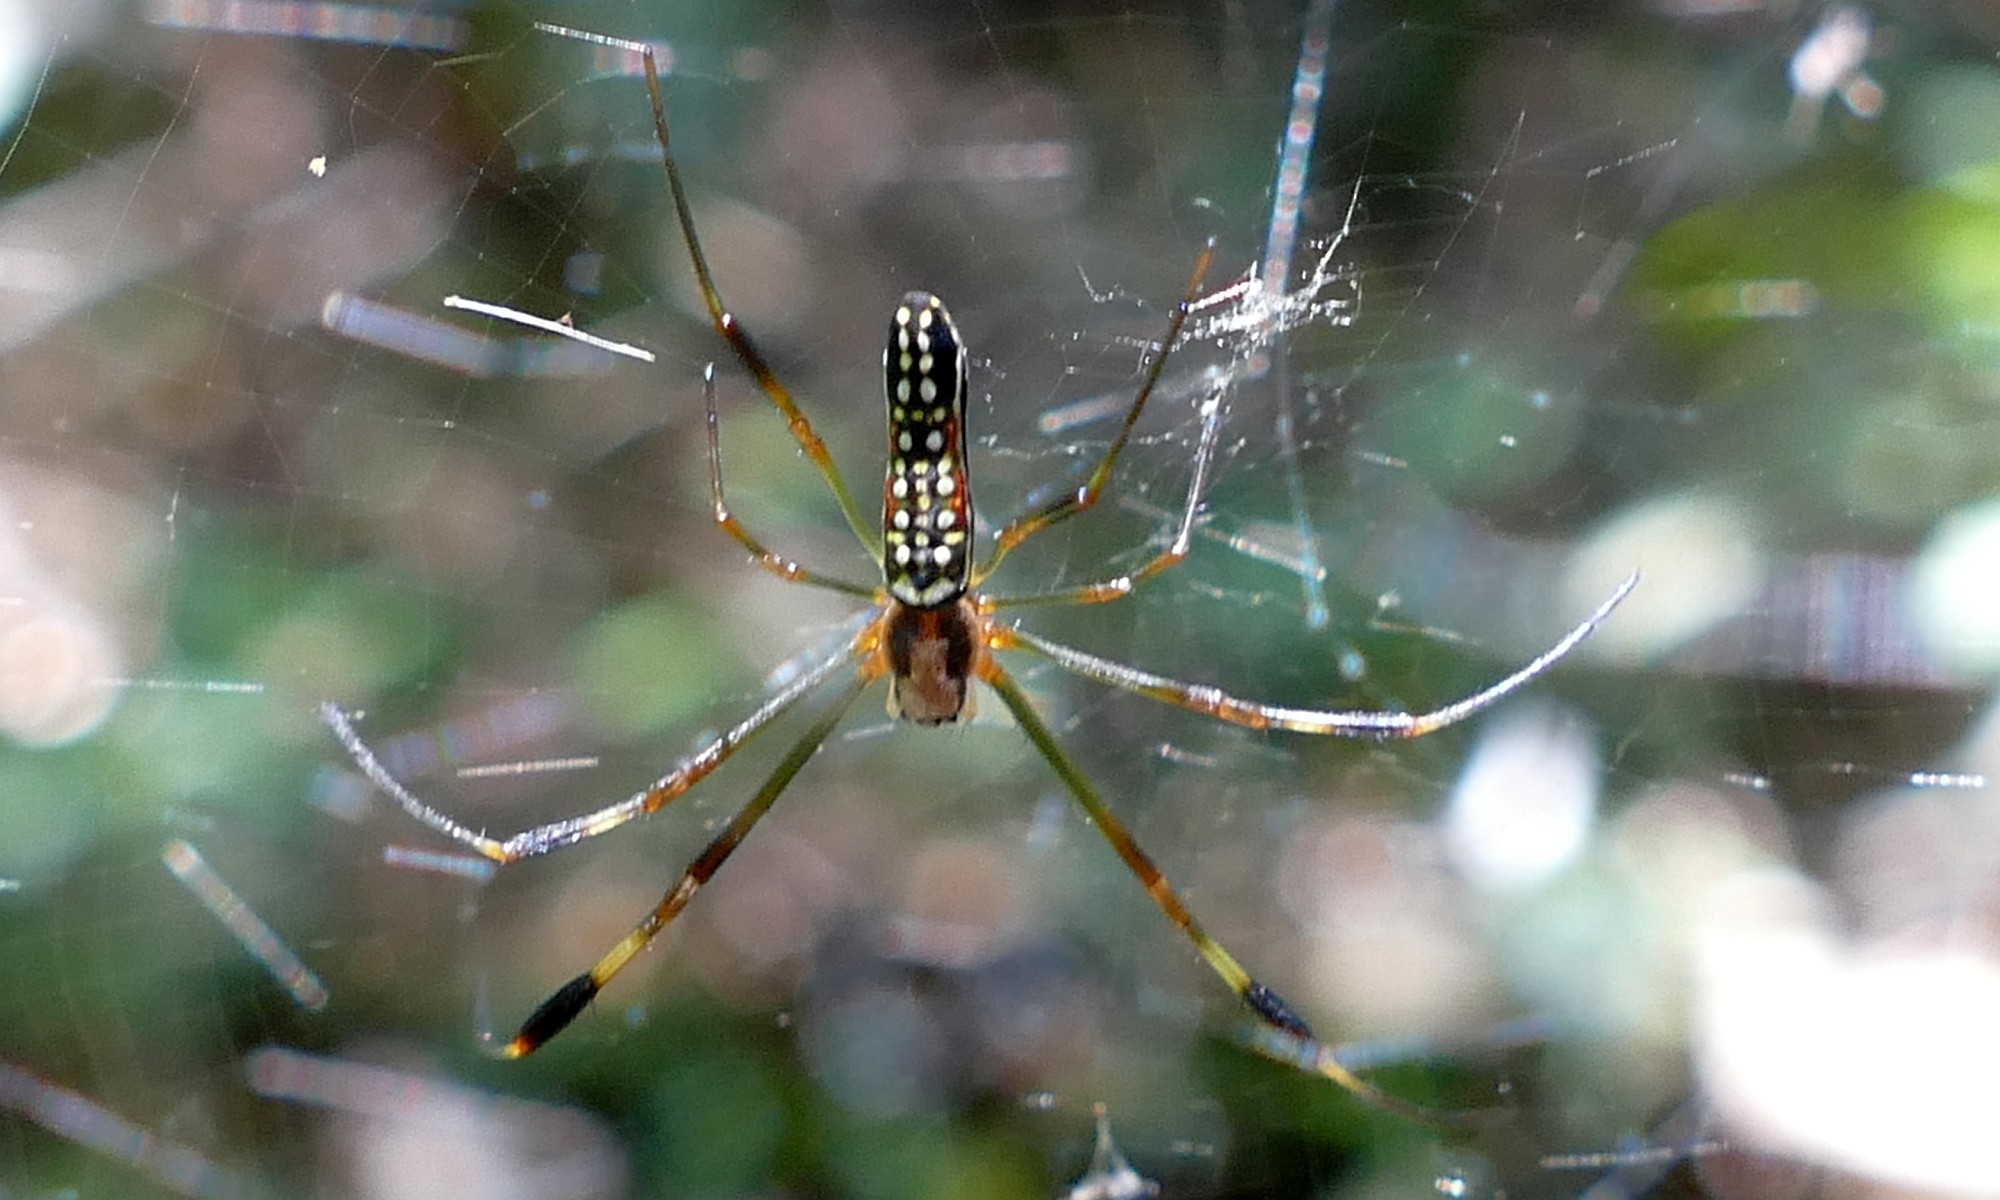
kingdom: Animalia
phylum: Arthropoda
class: Arachnida
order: Araneae
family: Araneidae
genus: Trichonephila
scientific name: Trichonephila clavipes
